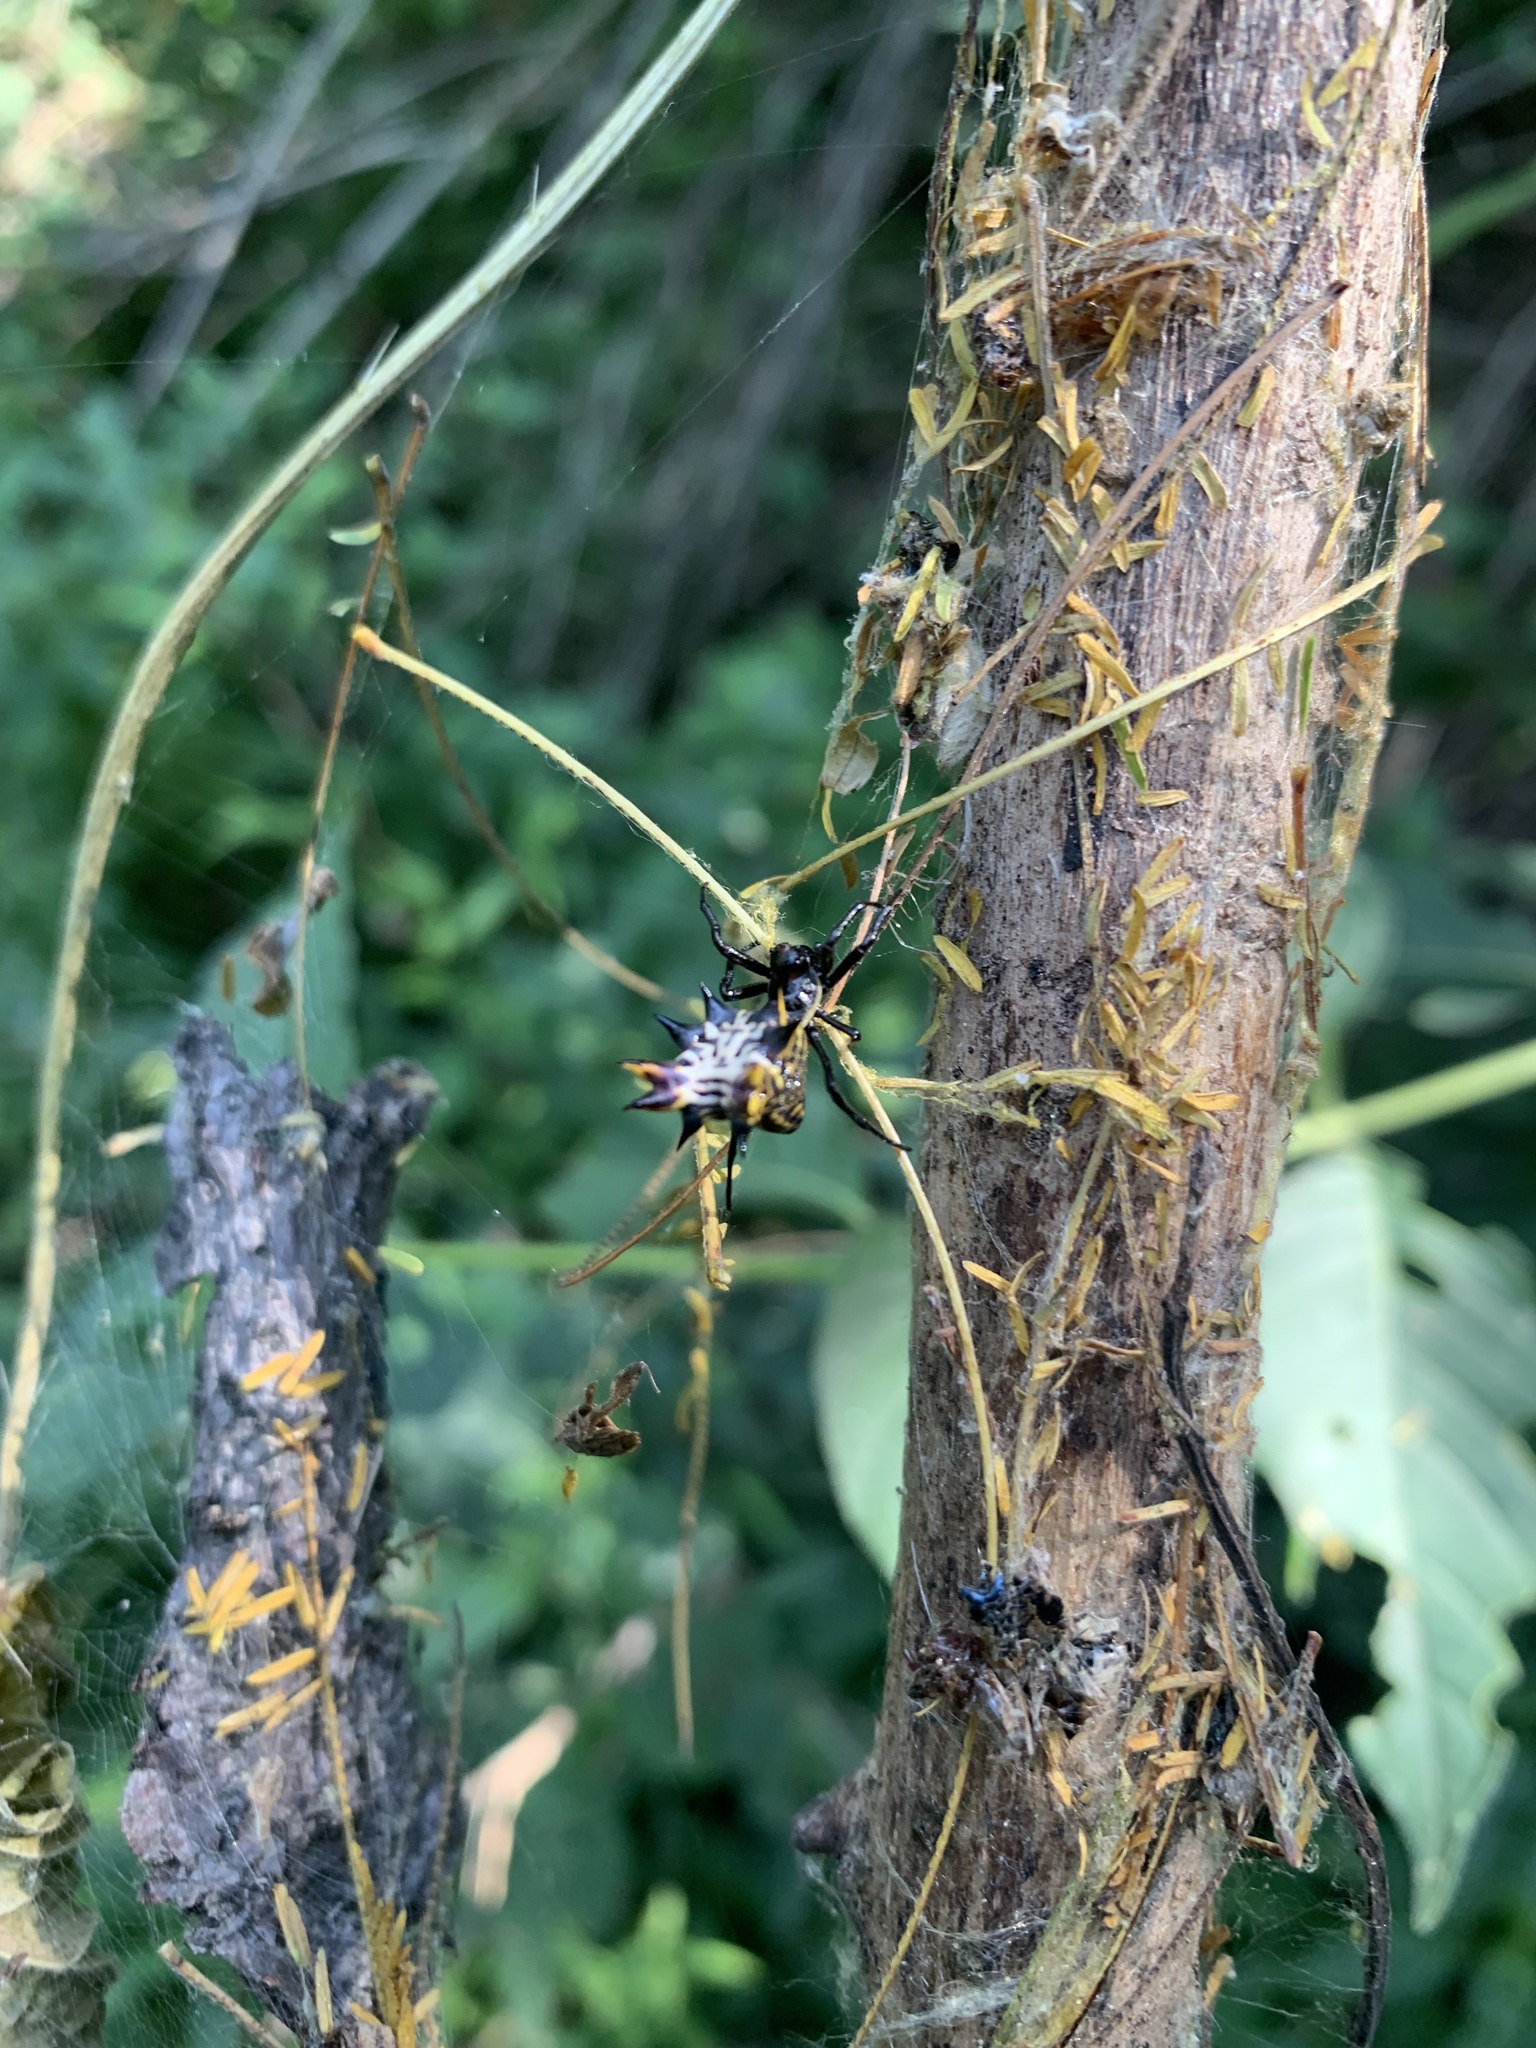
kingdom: Animalia
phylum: Arthropoda
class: Arachnida
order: Araneae
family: Araneidae
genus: Micrathena
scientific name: Micrathena gracilis
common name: Orb weavers
